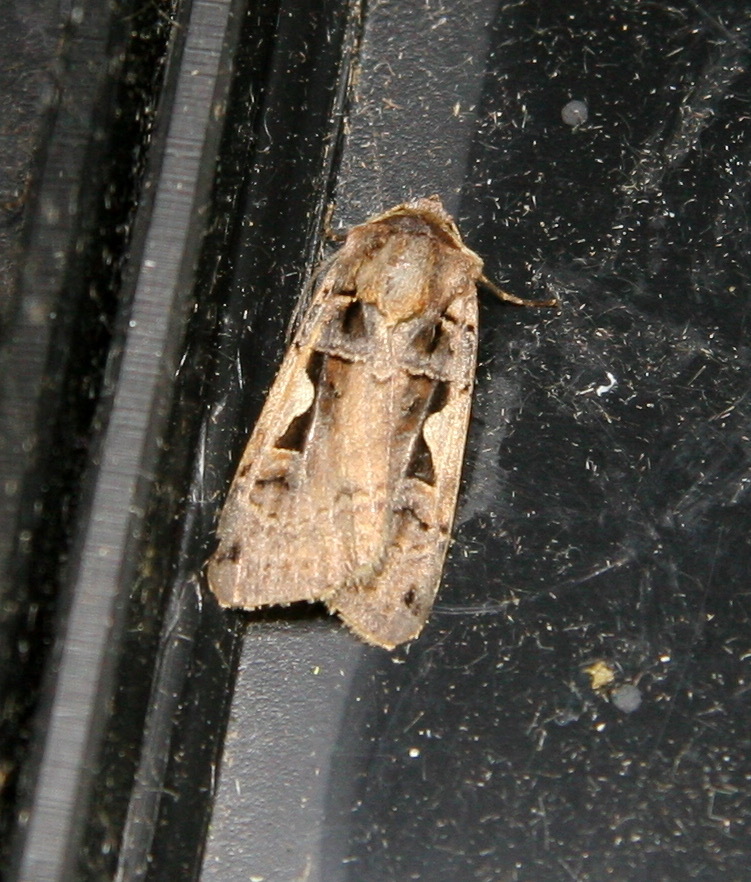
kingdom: Animalia
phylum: Arthropoda
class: Insecta
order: Lepidoptera
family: Noctuidae
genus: Xestia
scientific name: Xestia c-nigrum
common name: Setaceous hebrew character
